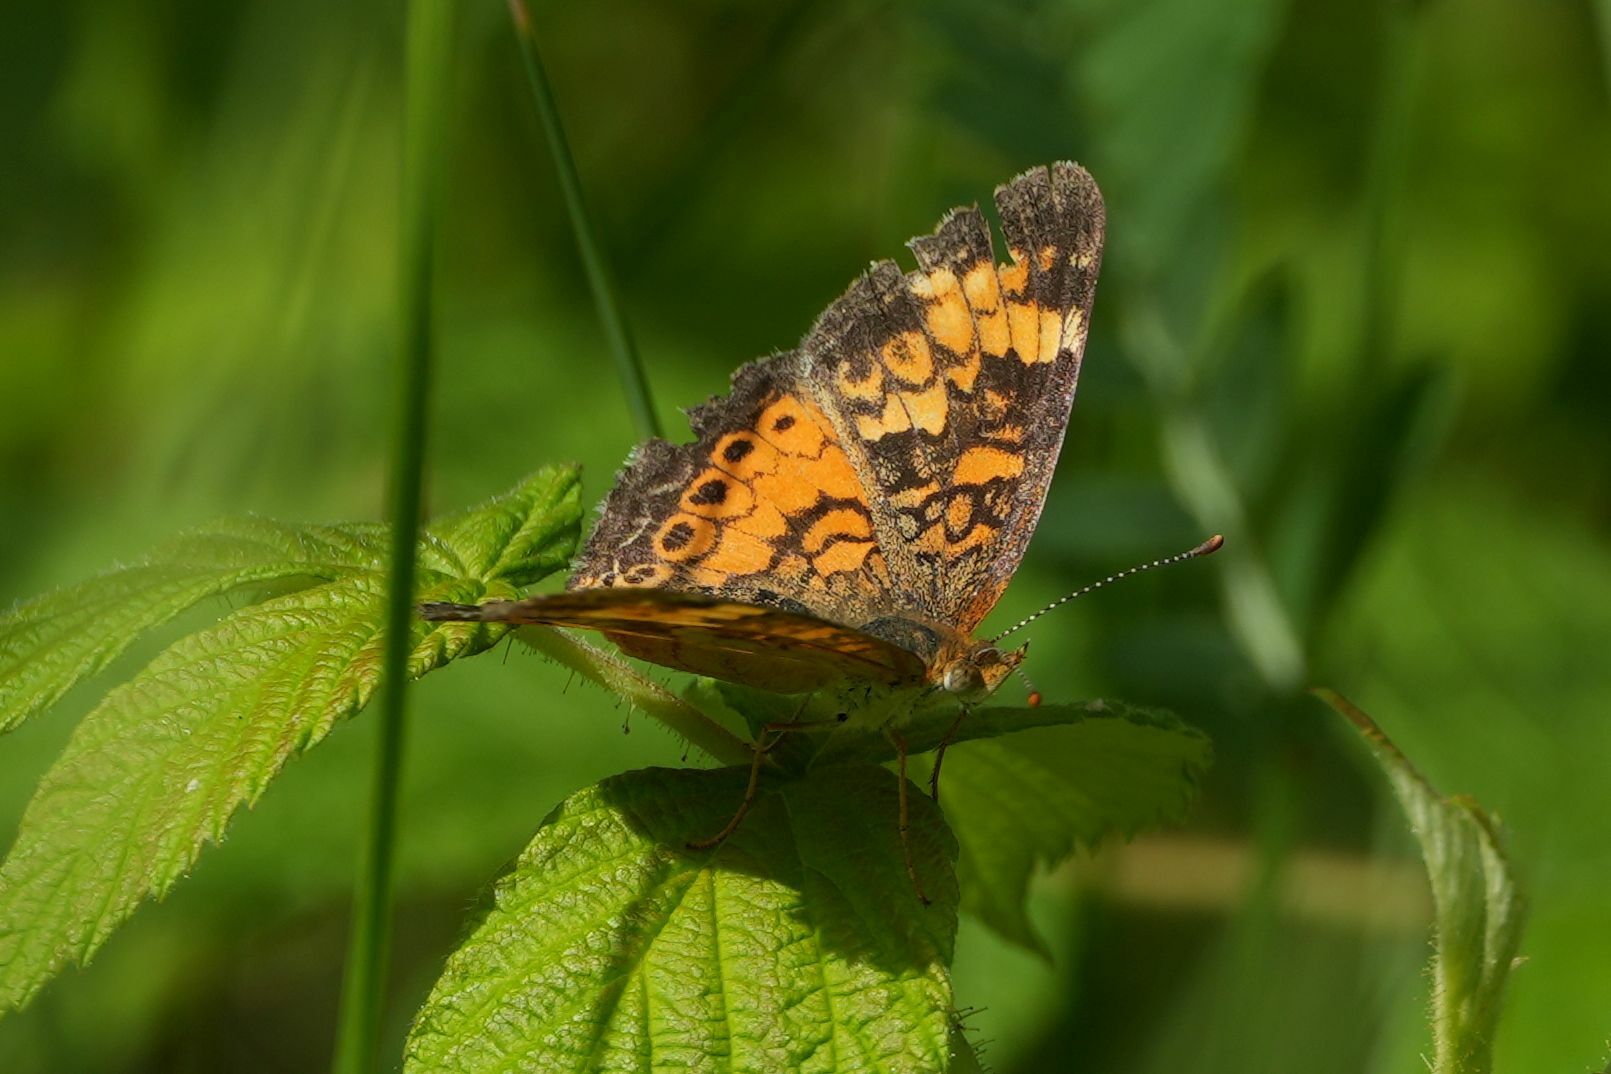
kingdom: Animalia
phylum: Arthropoda
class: Insecta
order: Lepidoptera
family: Nymphalidae
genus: Phyciodes
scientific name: Phyciodes tharos
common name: Pearl crescent
